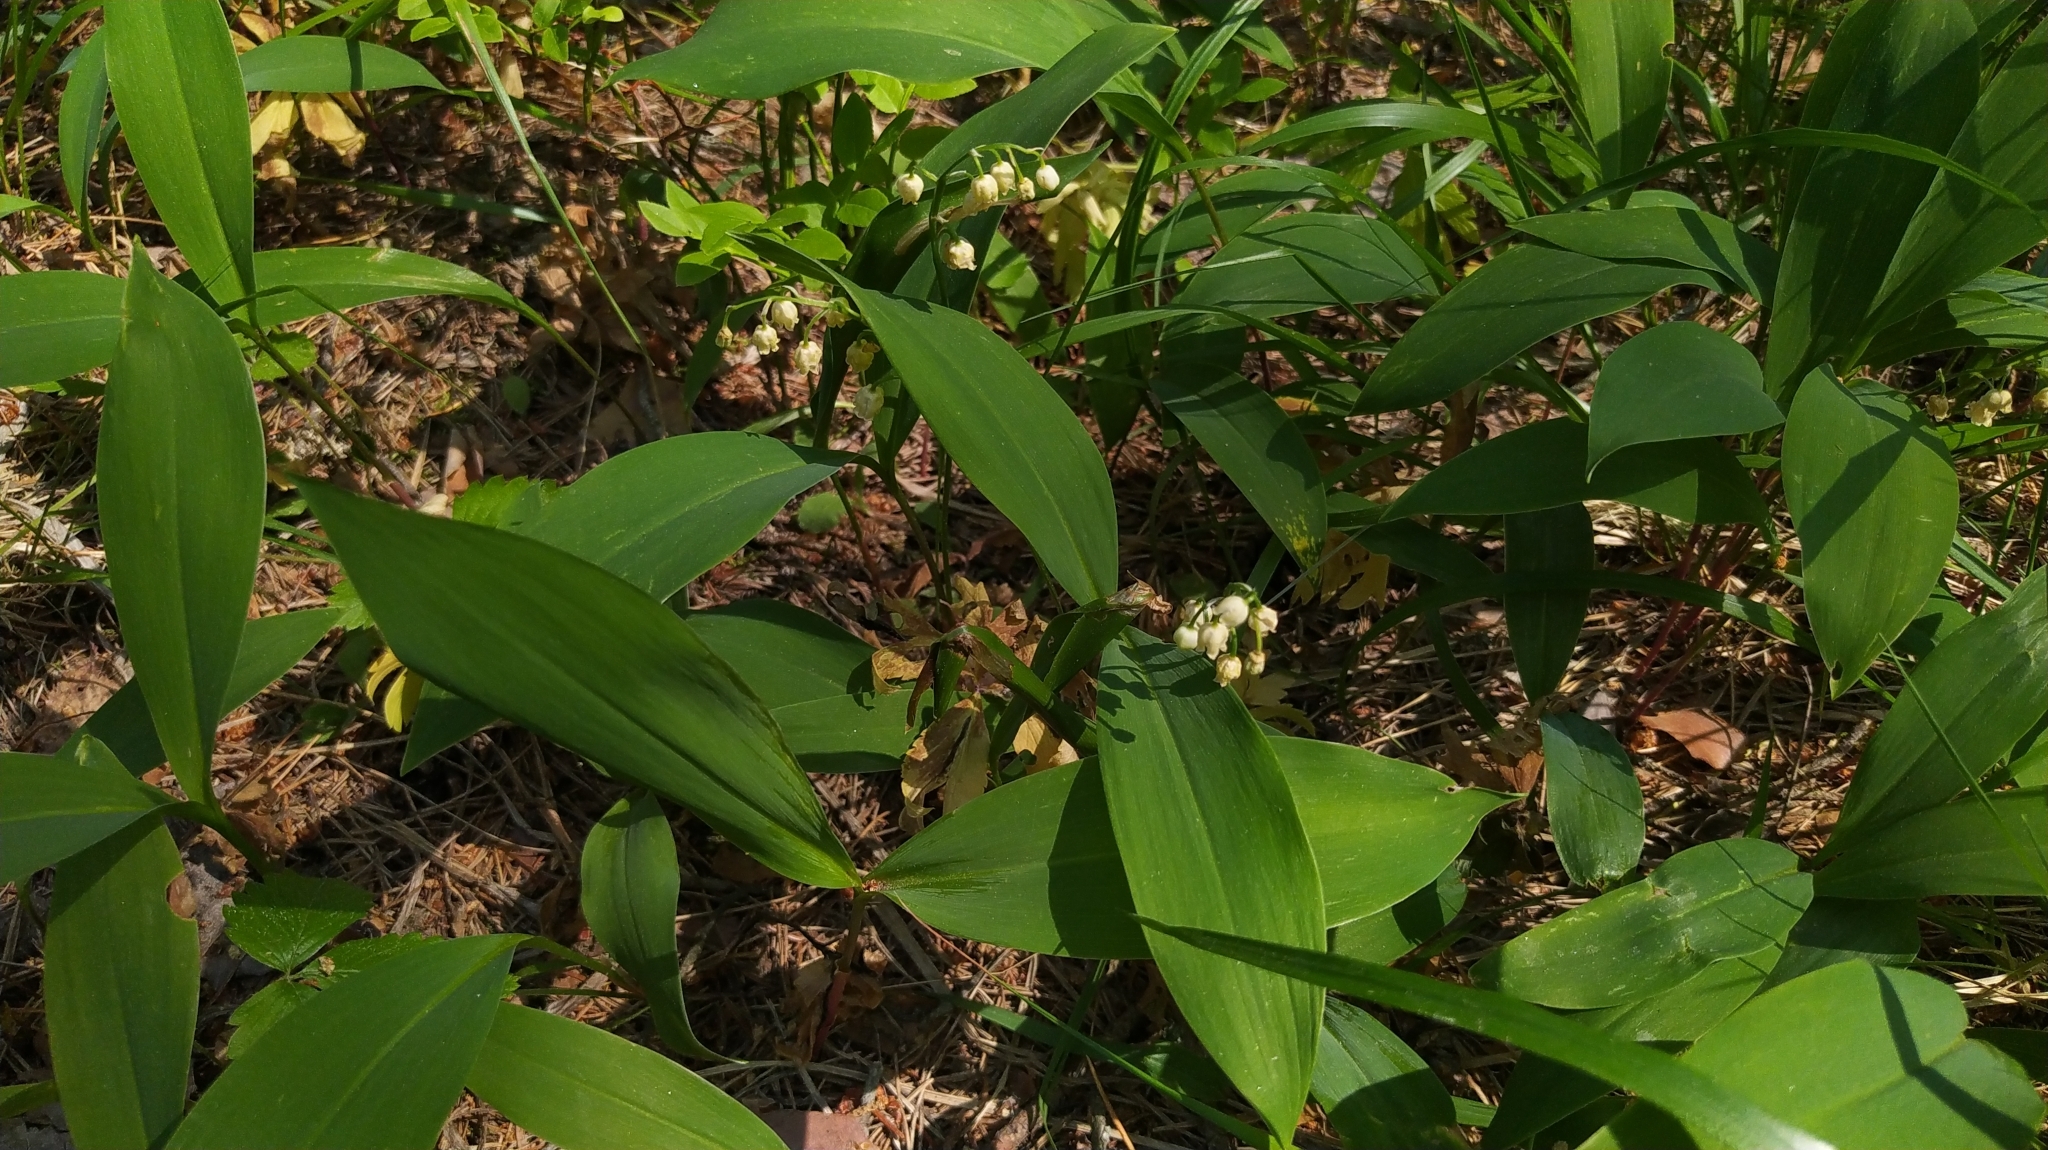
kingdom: Plantae
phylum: Tracheophyta
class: Liliopsida
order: Asparagales
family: Asparagaceae
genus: Convallaria
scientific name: Convallaria majalis
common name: Lily-of-the-valley
